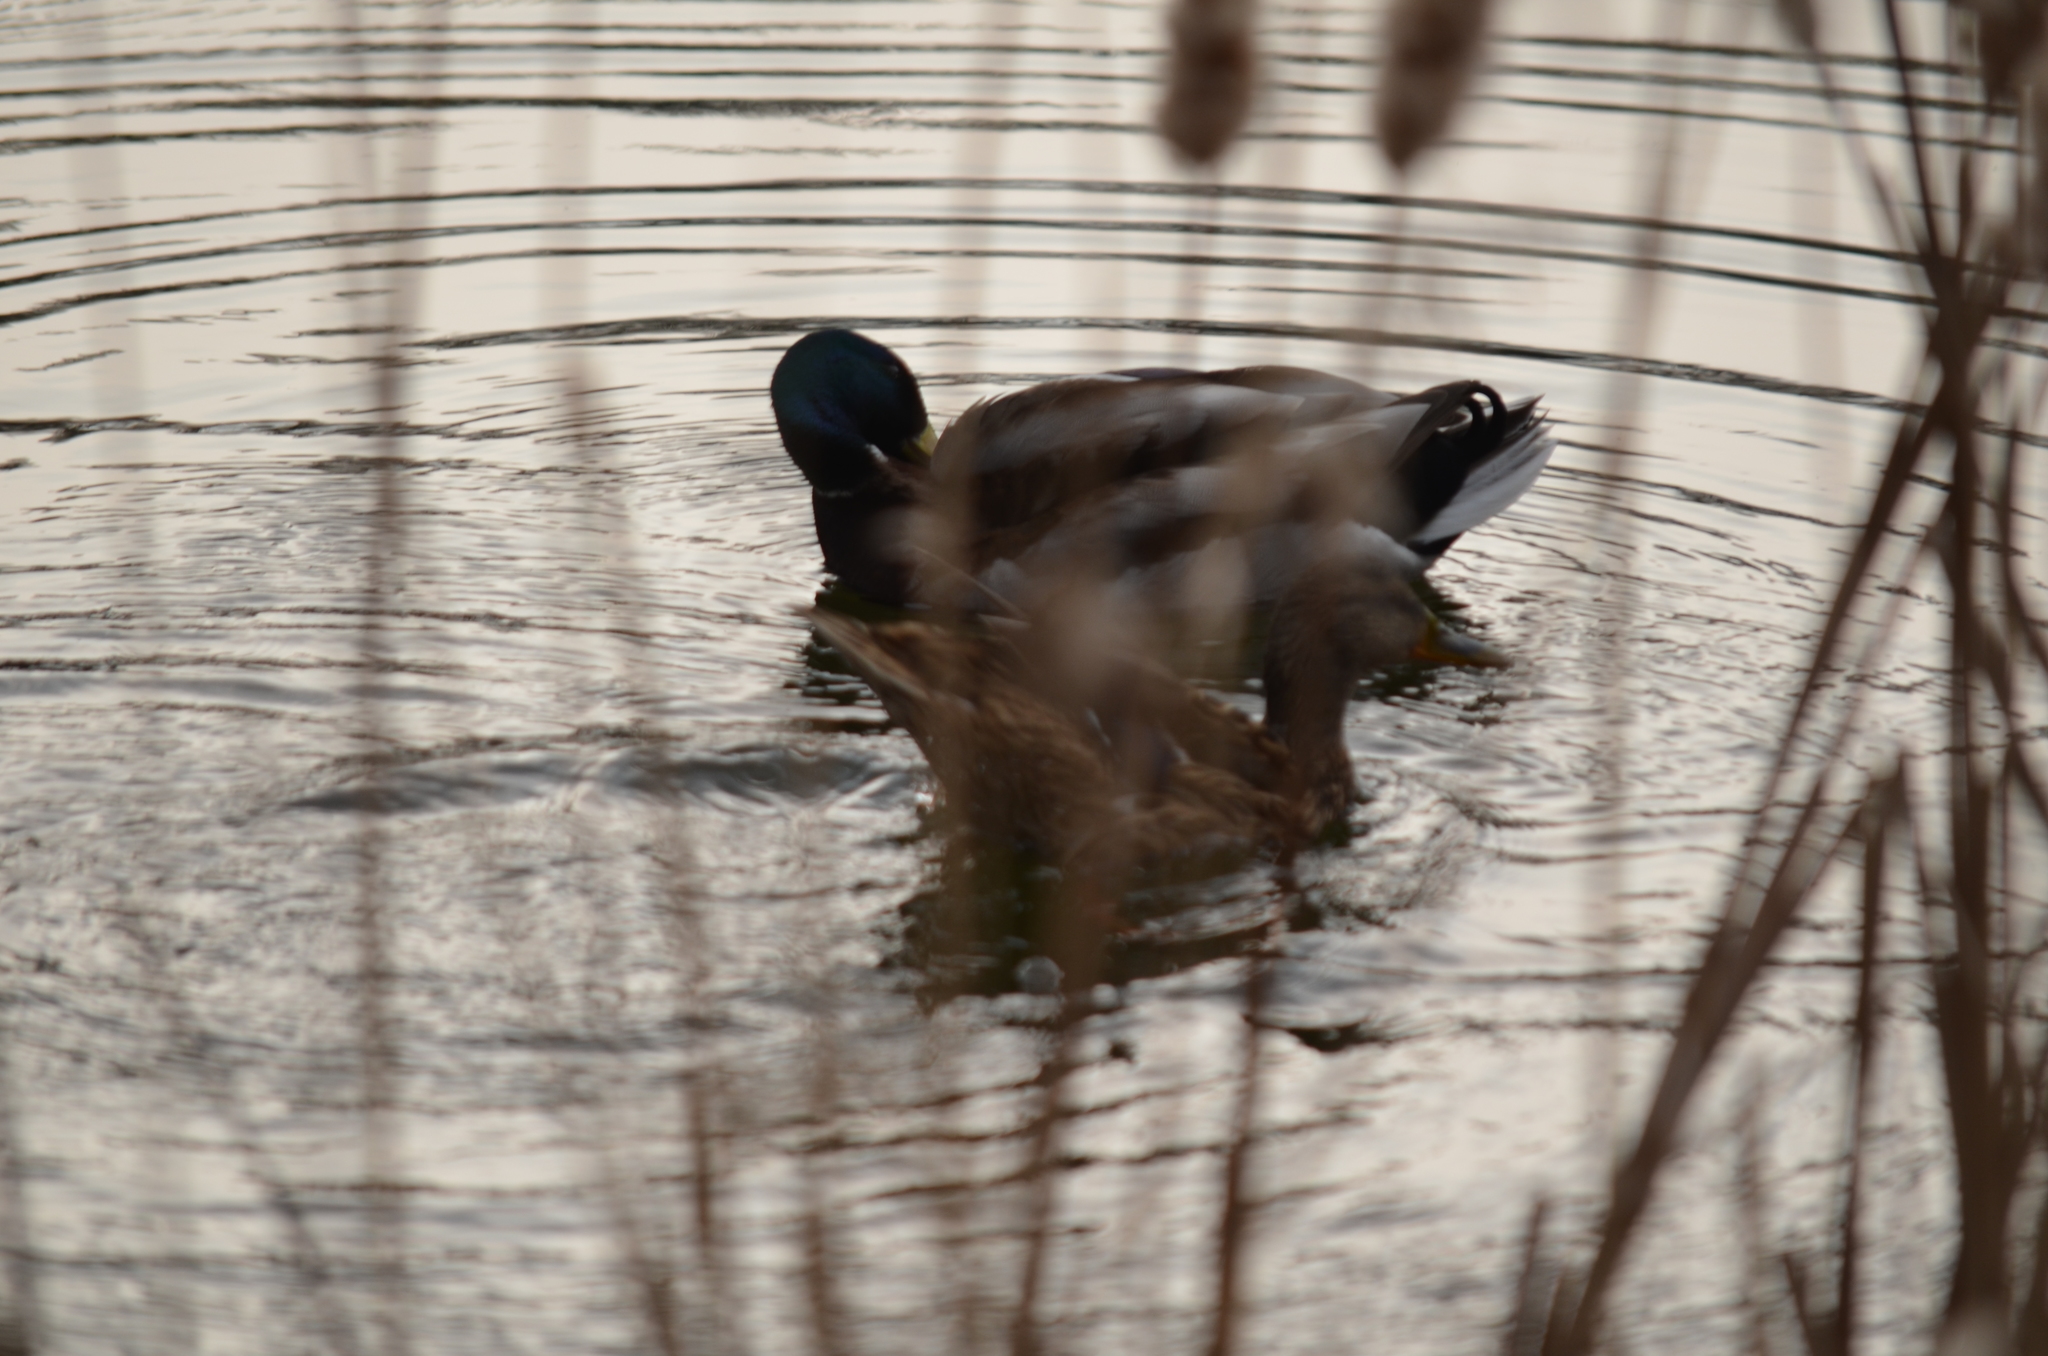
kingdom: Animalia
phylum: Chordata
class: Aves
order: Anseriformes
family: Anatidae
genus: Anas
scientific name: Anas platyrhynchos
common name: Mallard
